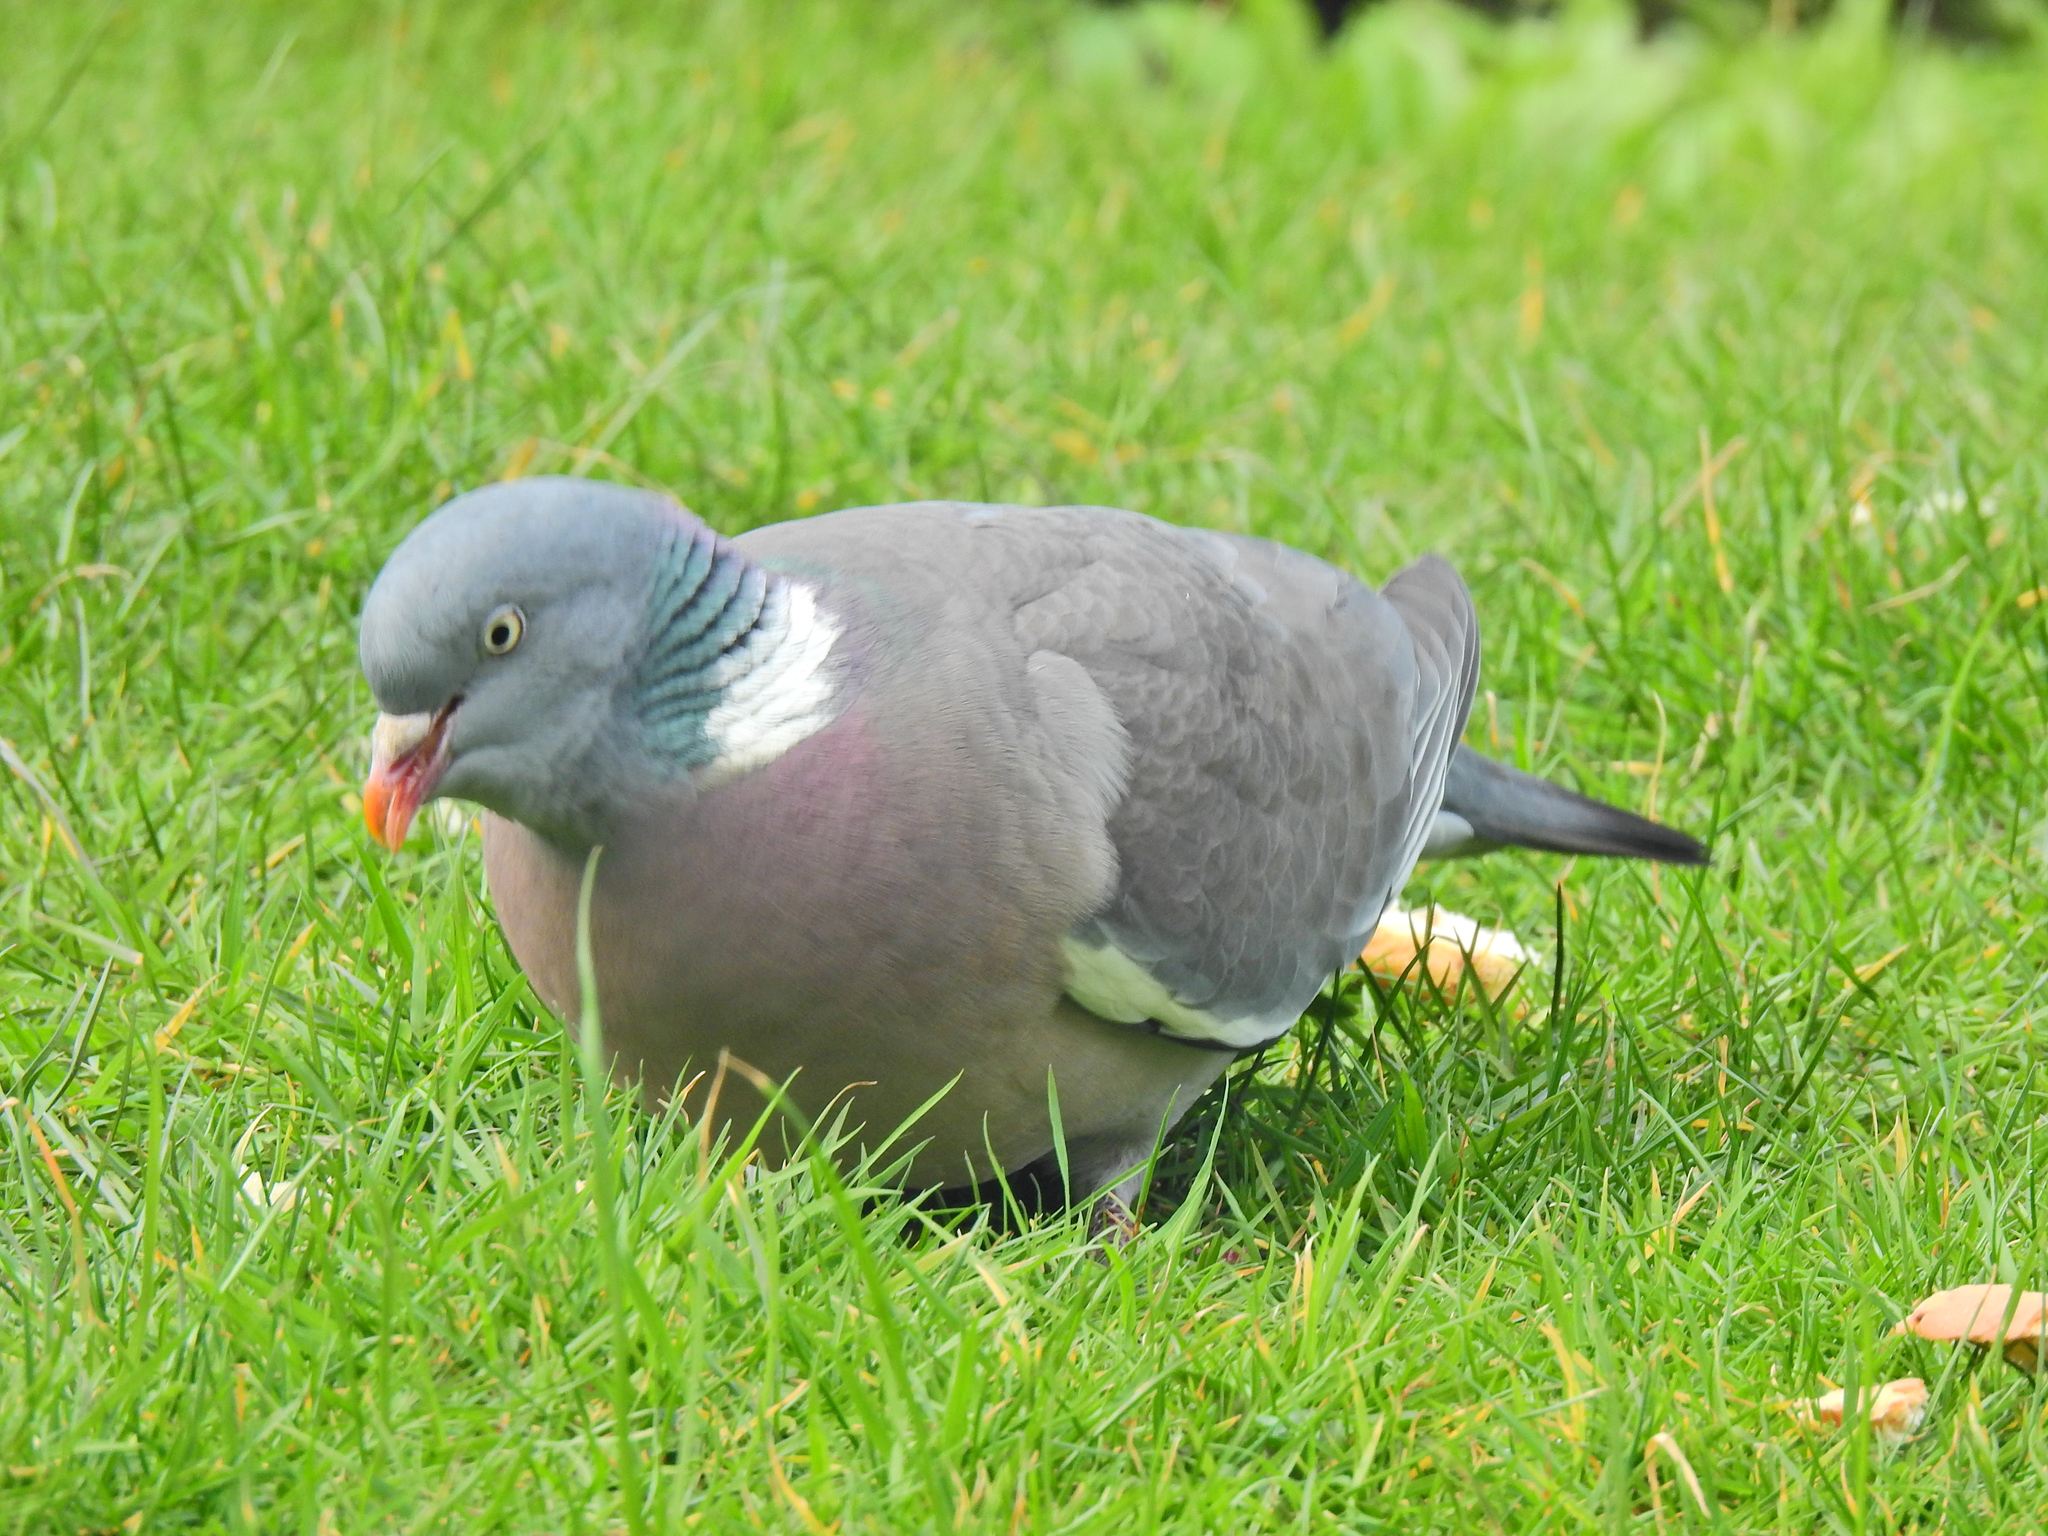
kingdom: Animalia
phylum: Chordata
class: Aves
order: Columbiformes
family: Columbidae
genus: Columba
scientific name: Columba palumbus
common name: Common wood pigeon
